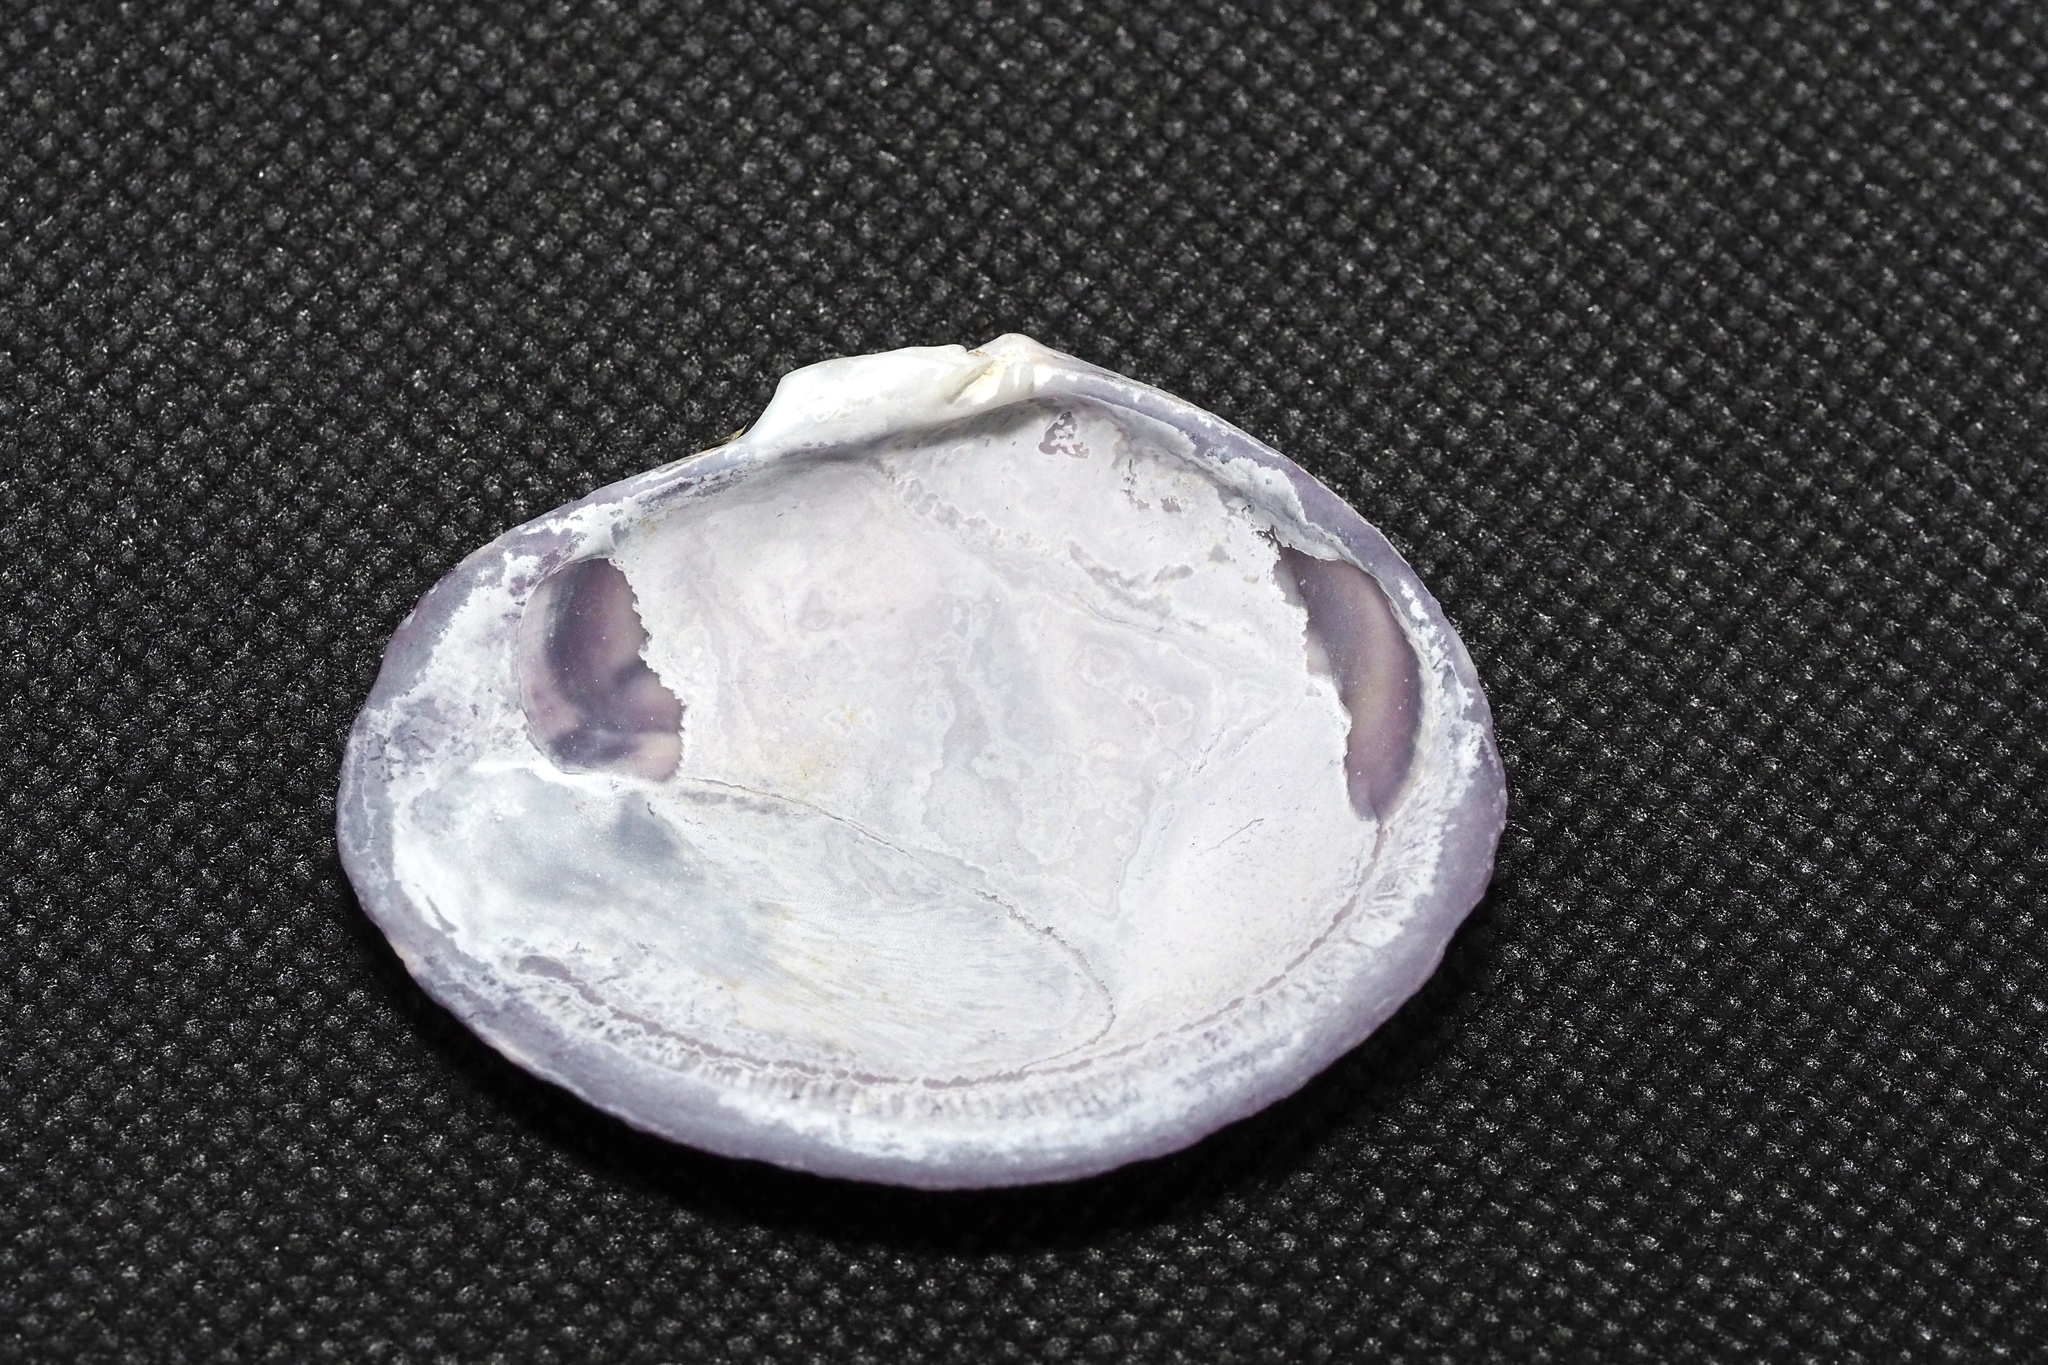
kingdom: Animalia
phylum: Mollusca
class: Bivalvia
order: Cardiida
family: Psammobiidae
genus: Nuttallia
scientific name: Nuttallia japonica
